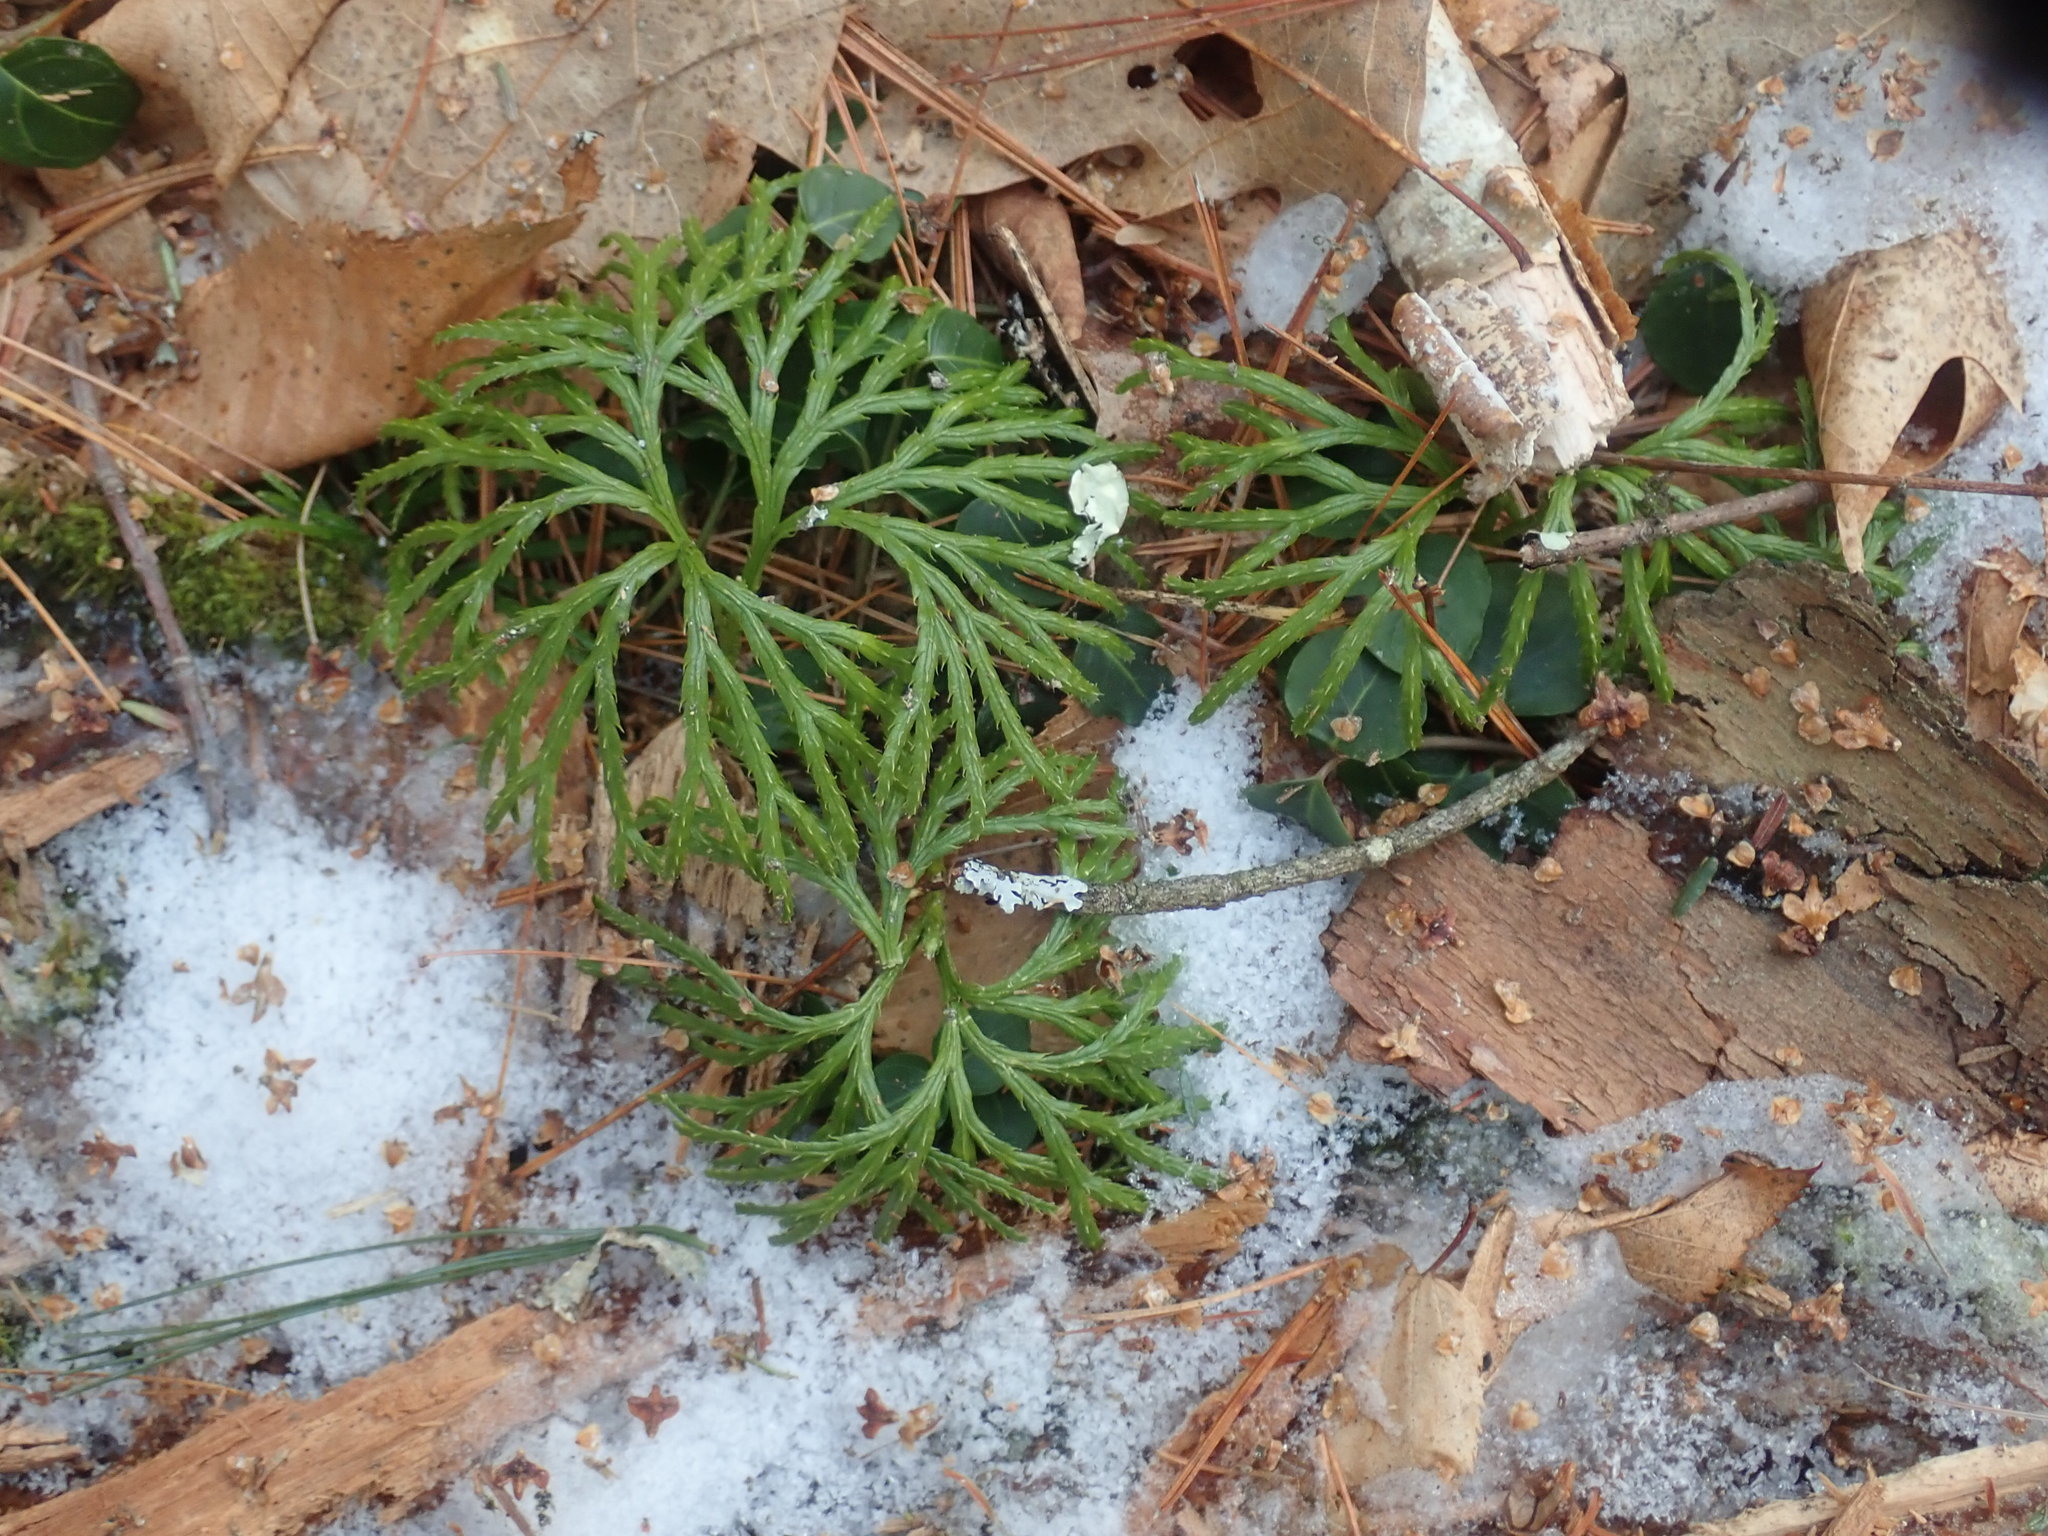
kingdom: Plantae
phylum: Tracheophyta
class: Lycopodiopsida
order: Lycopodiales
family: Lycopodiaceae
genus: Diphasiastrum
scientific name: Diphasiastrum digitatum
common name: Southern running-pine
